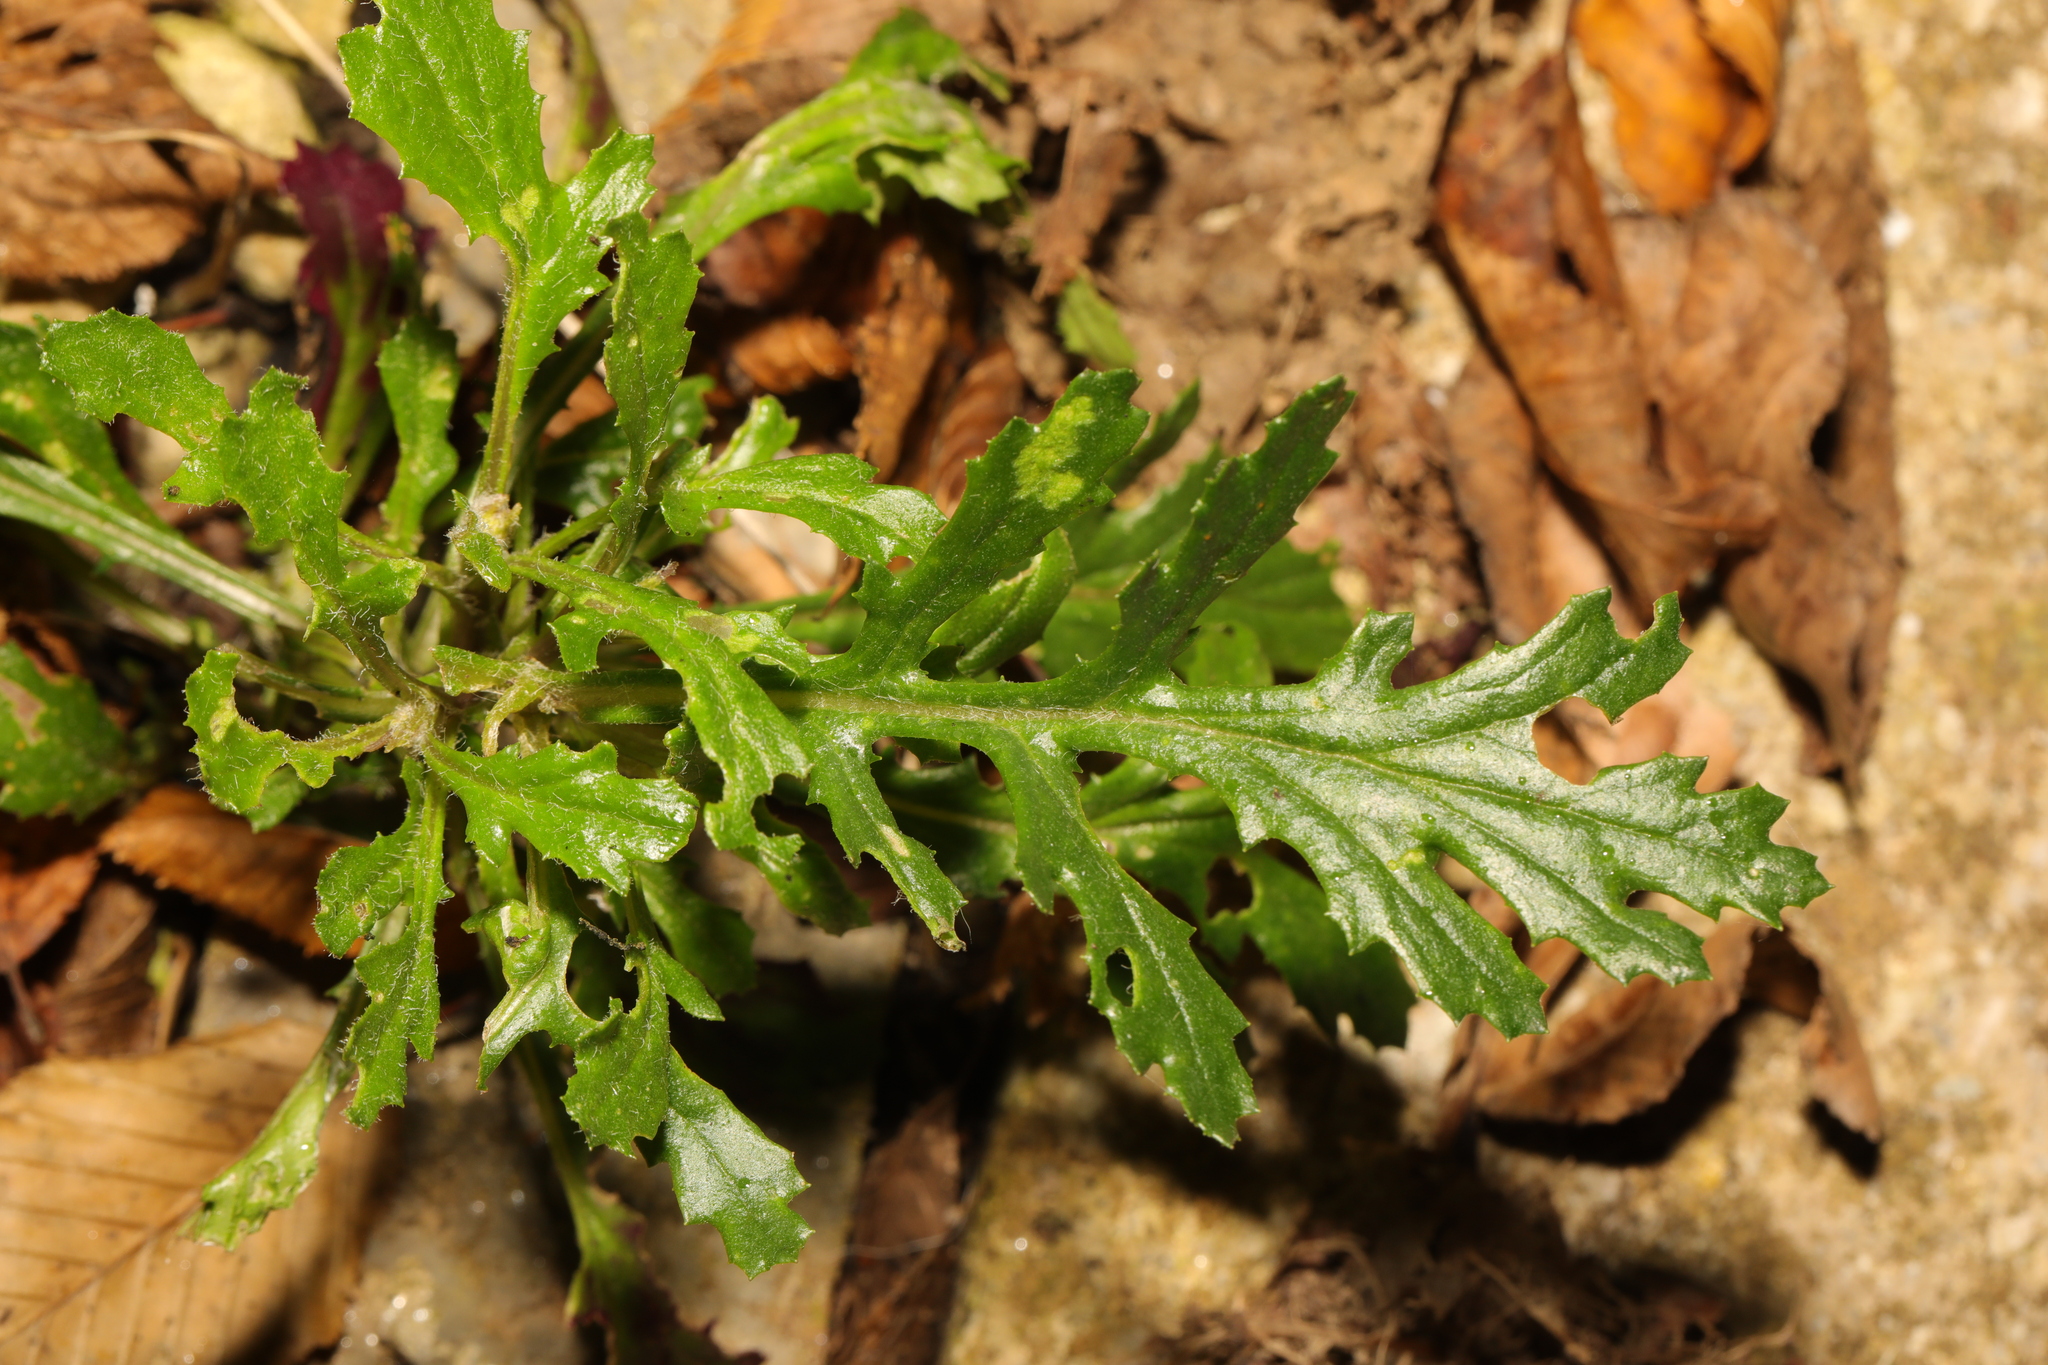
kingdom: Plantae
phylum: Tracheophyta
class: Magnoliopsida
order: Asterales
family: Asteraceae
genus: Senecio
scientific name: Senecio squalidus
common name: Oxford ragwort
